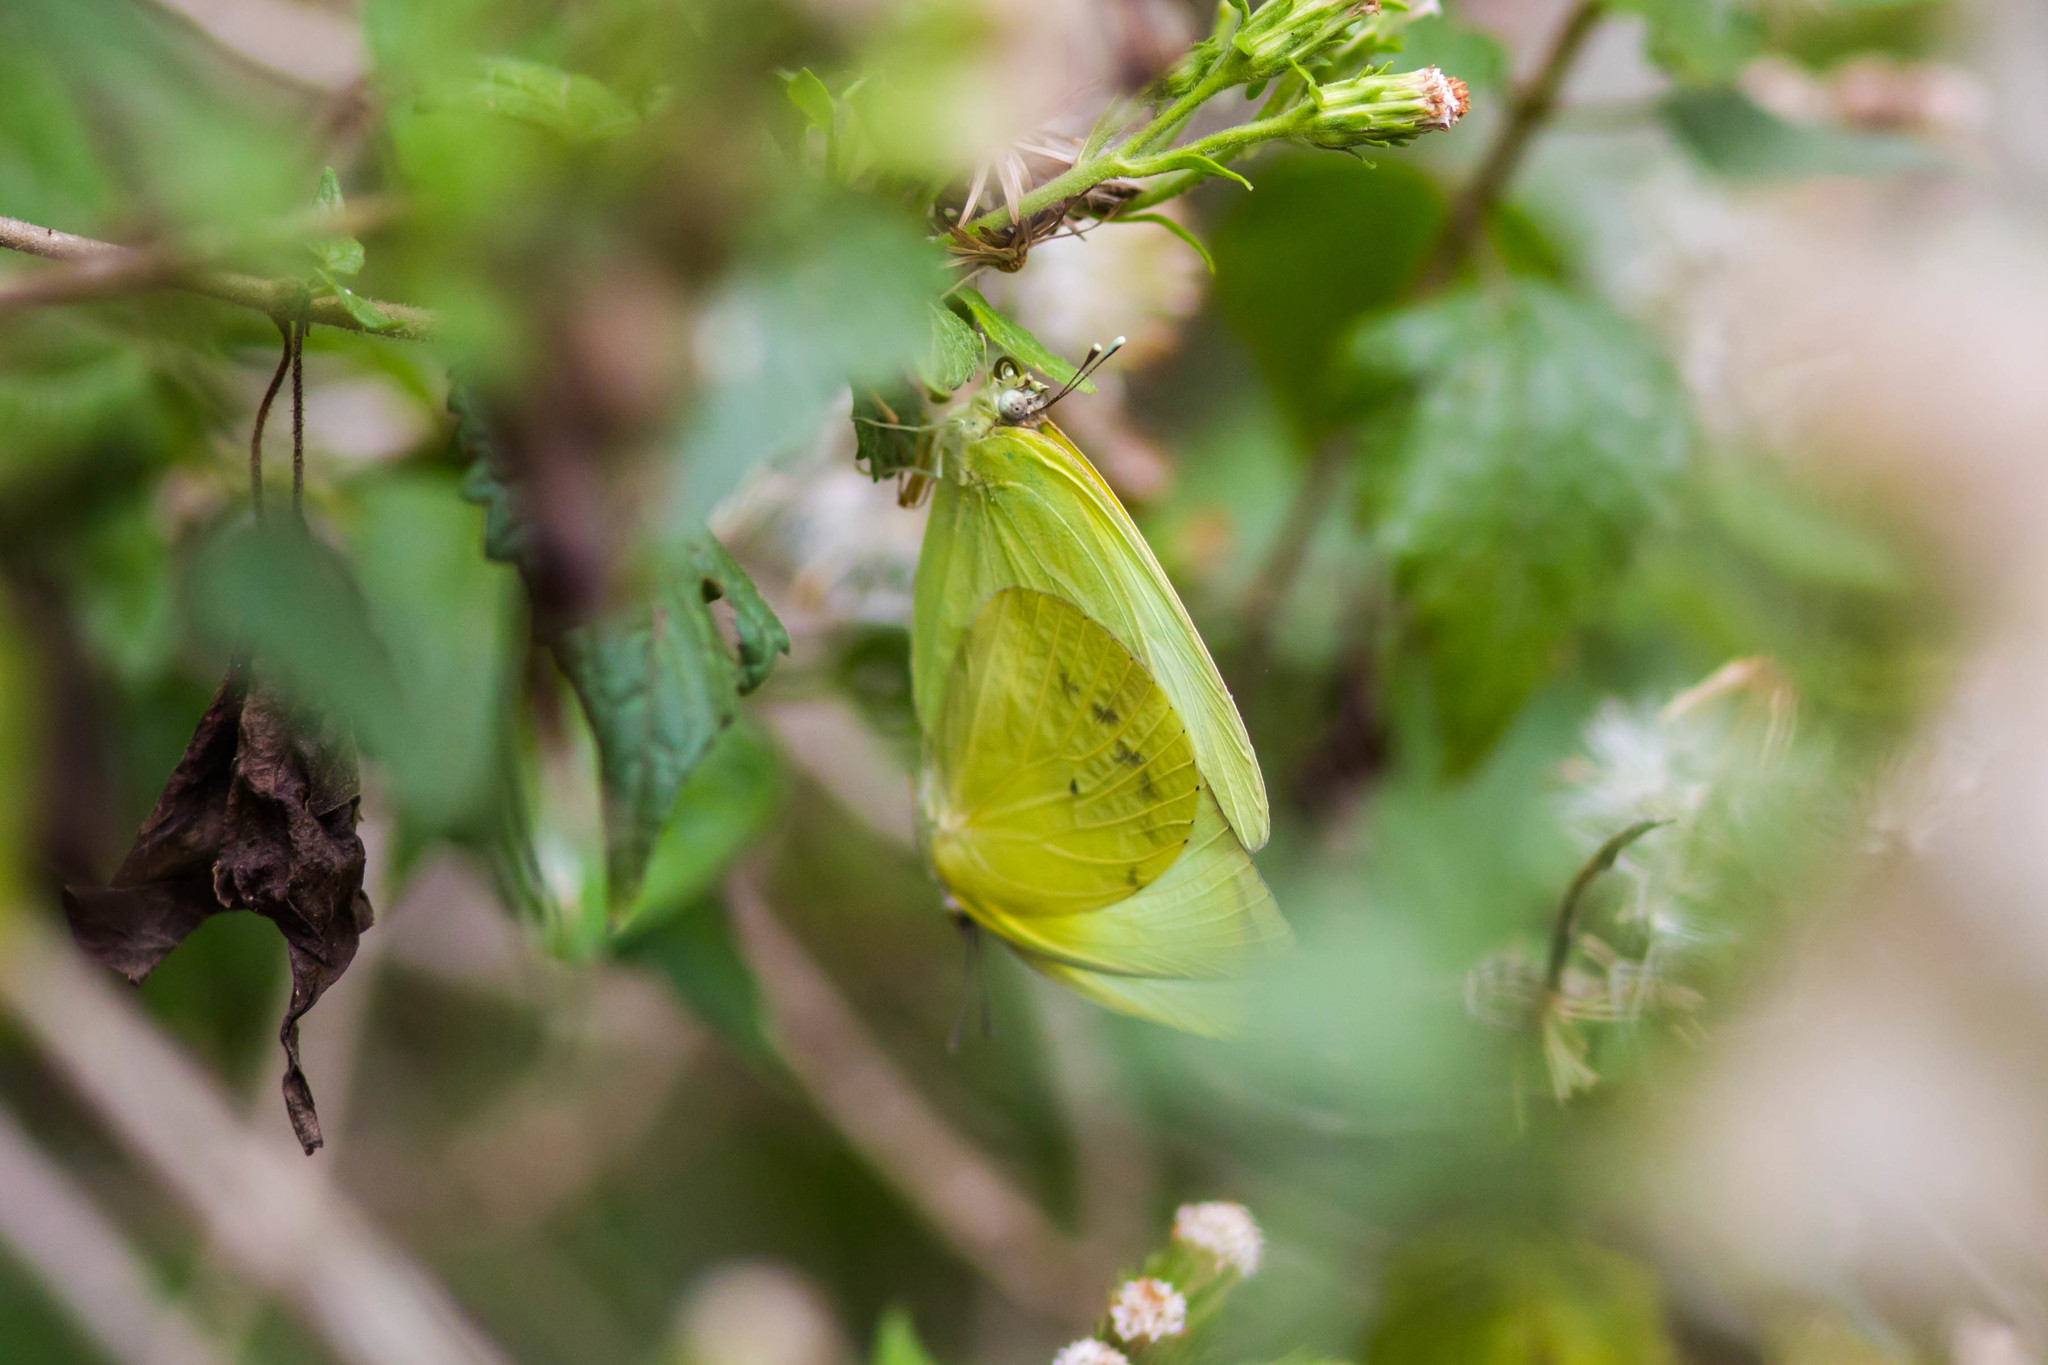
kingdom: Animalia
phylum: Arthropoda
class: Insecta
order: Lepidoptera
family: Pieridae
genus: Kricogonia
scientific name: Kricogonia lyside
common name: Guayacan sulphur,
